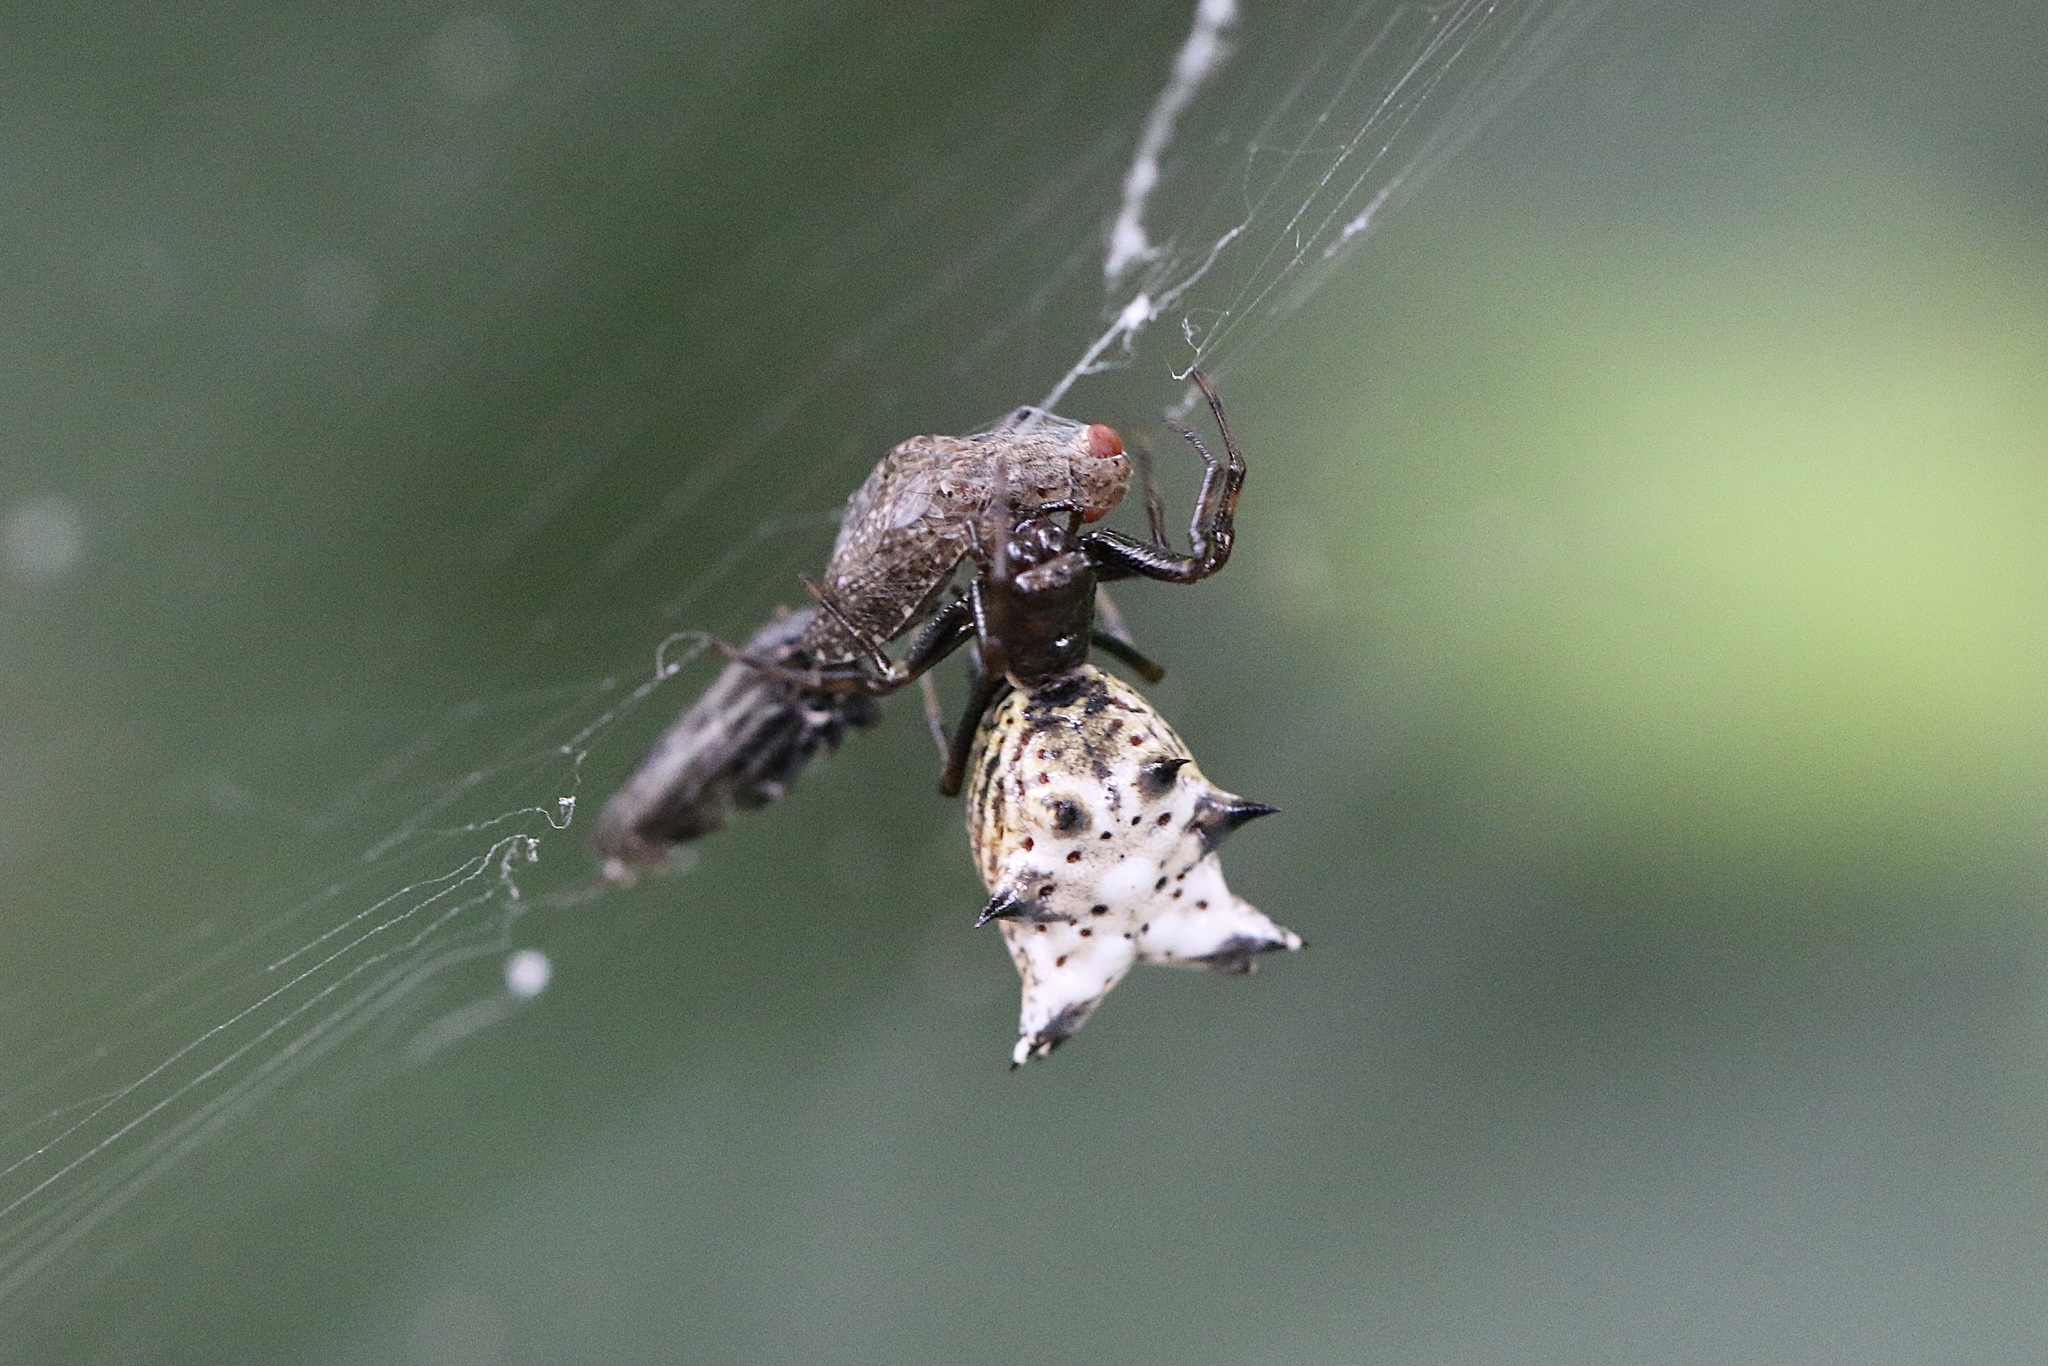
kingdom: Animalia
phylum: Arthropoda
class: Arachnida
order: Araneae
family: Araneidae
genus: Micrathena
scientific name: Micrathena gracilis
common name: Orb weavers
